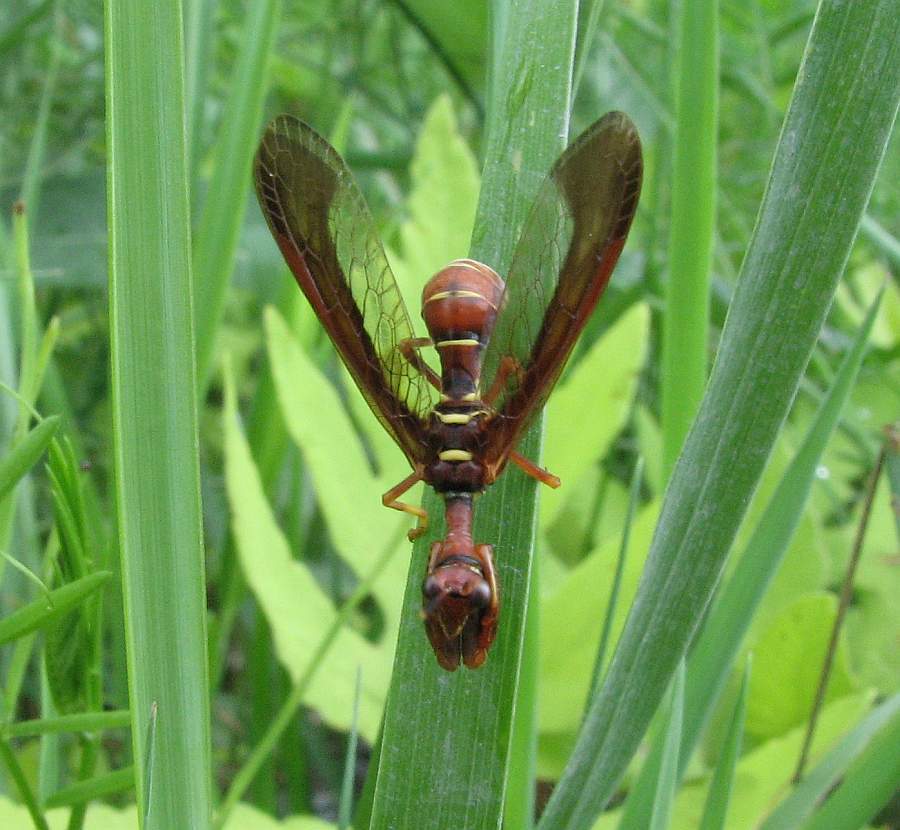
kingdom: Animalia
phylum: Arthropoda
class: Insecta
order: Neuroptera
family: Mantispidae
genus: Climaciella
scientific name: Climaciella brunnea
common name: Brown wasp mantidfly
